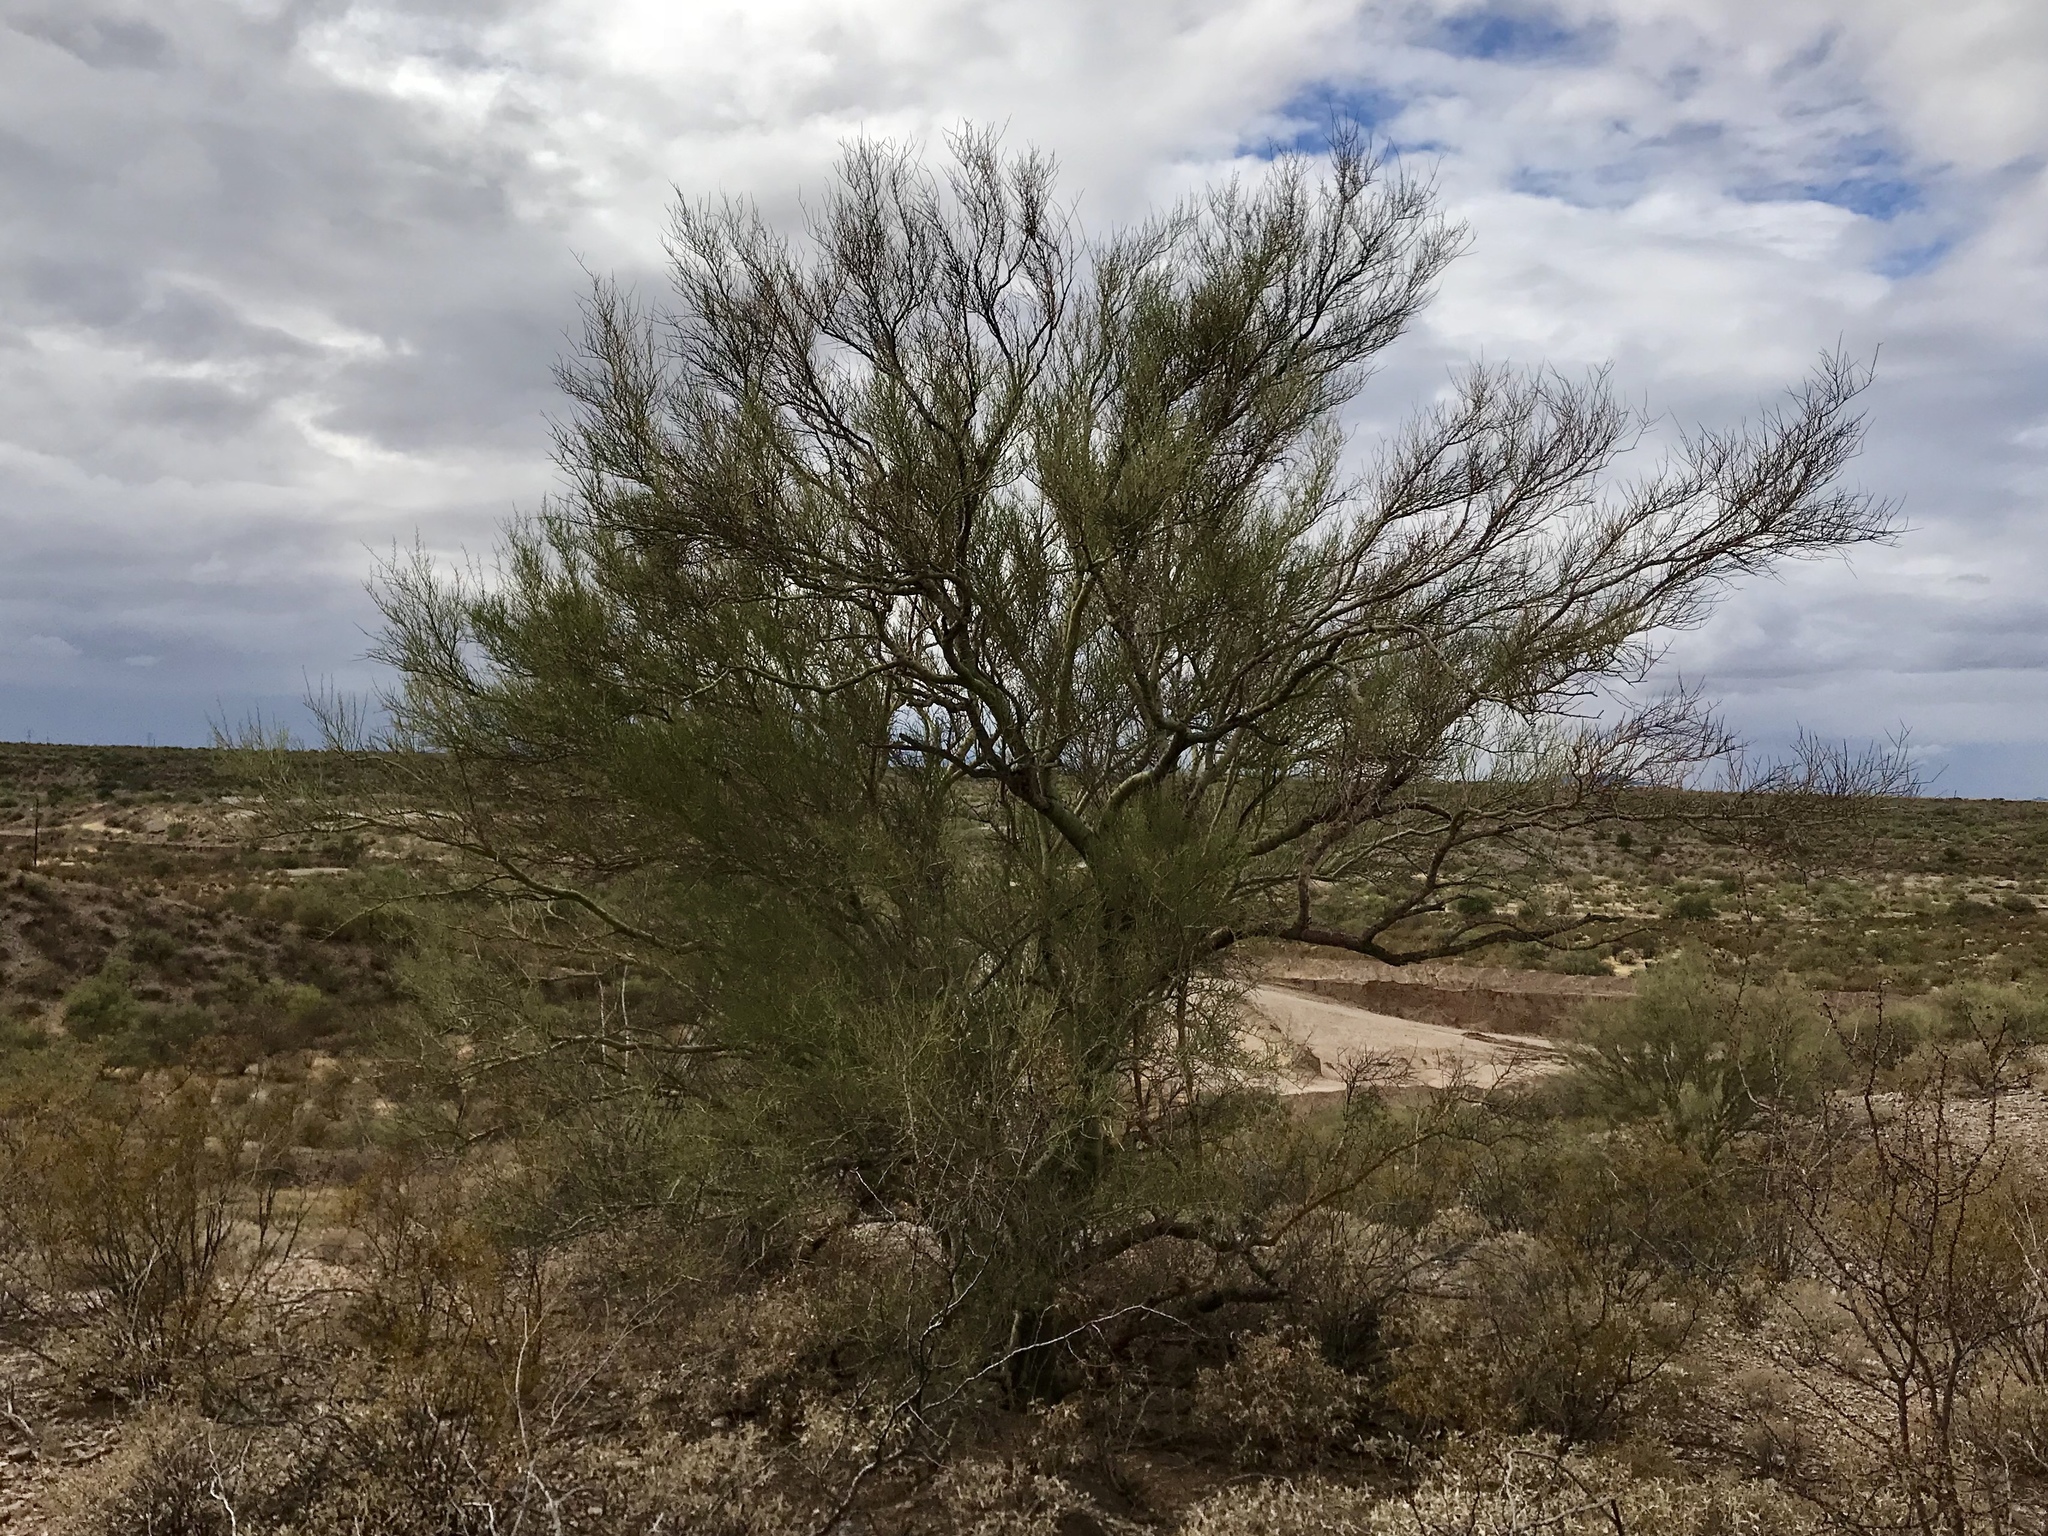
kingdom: Plantae
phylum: Tracheophyta
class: Magnoliopsida
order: Fabales
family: Fabaceae
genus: Parkinsonia
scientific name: Parkinsonia microphylla
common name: Yellow paloverde
